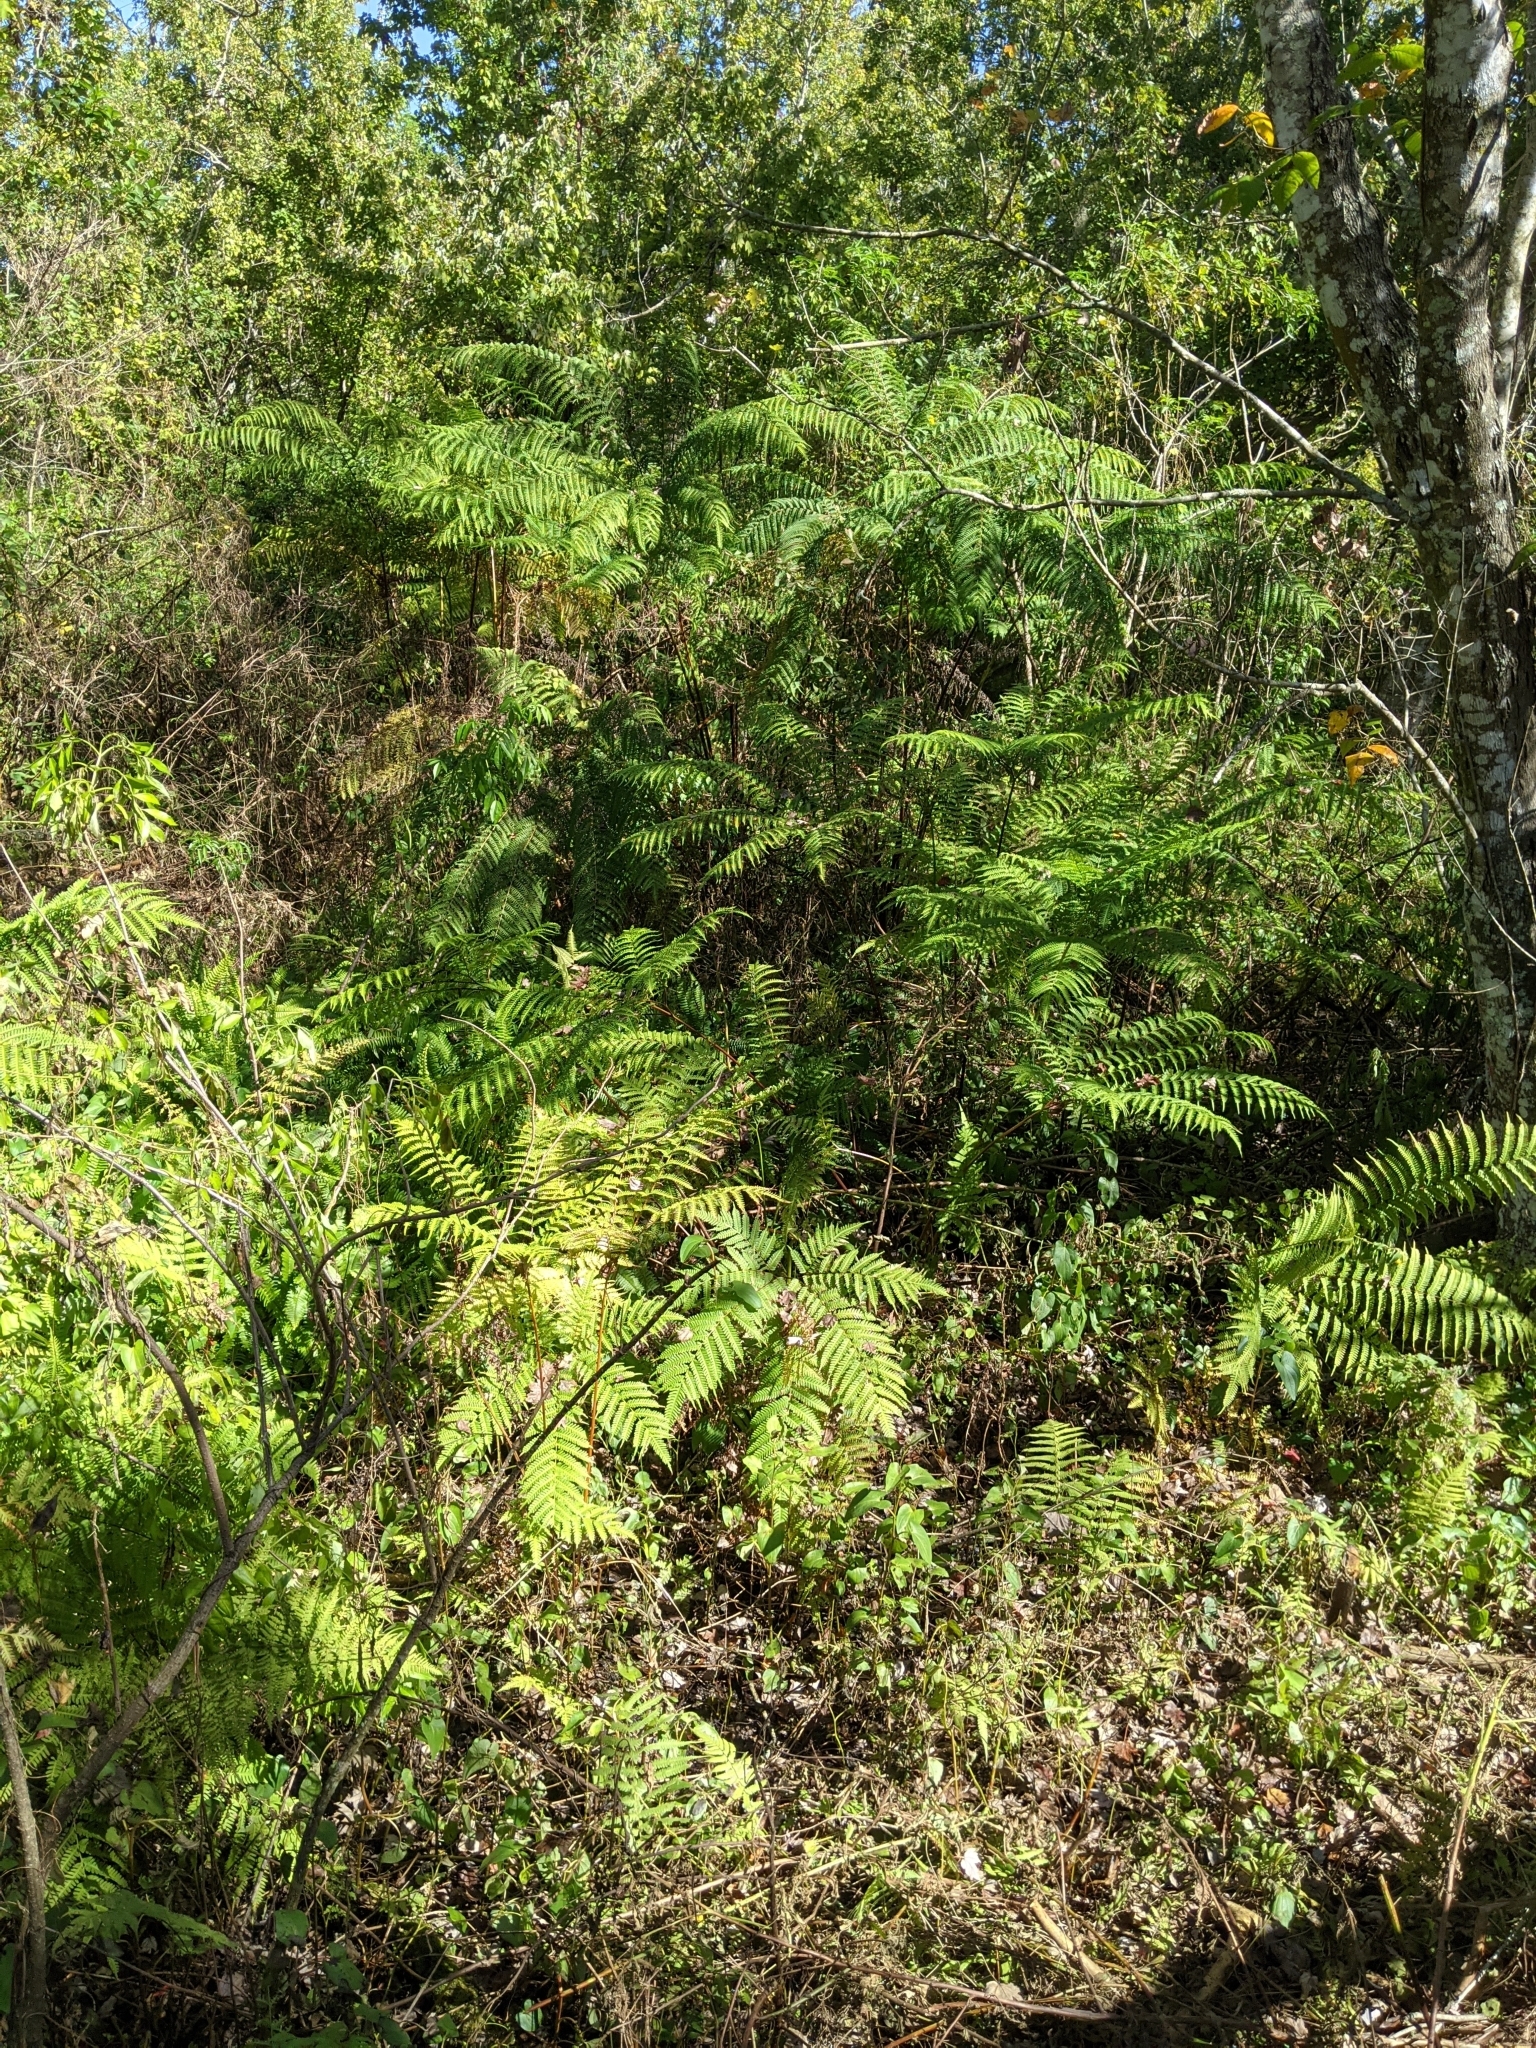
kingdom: Plantae
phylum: Tracheophyta
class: Polypodiopsida
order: Polypodiales
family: Pteridaceae
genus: Pteris
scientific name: Pteris tripartita
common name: Giant brake
